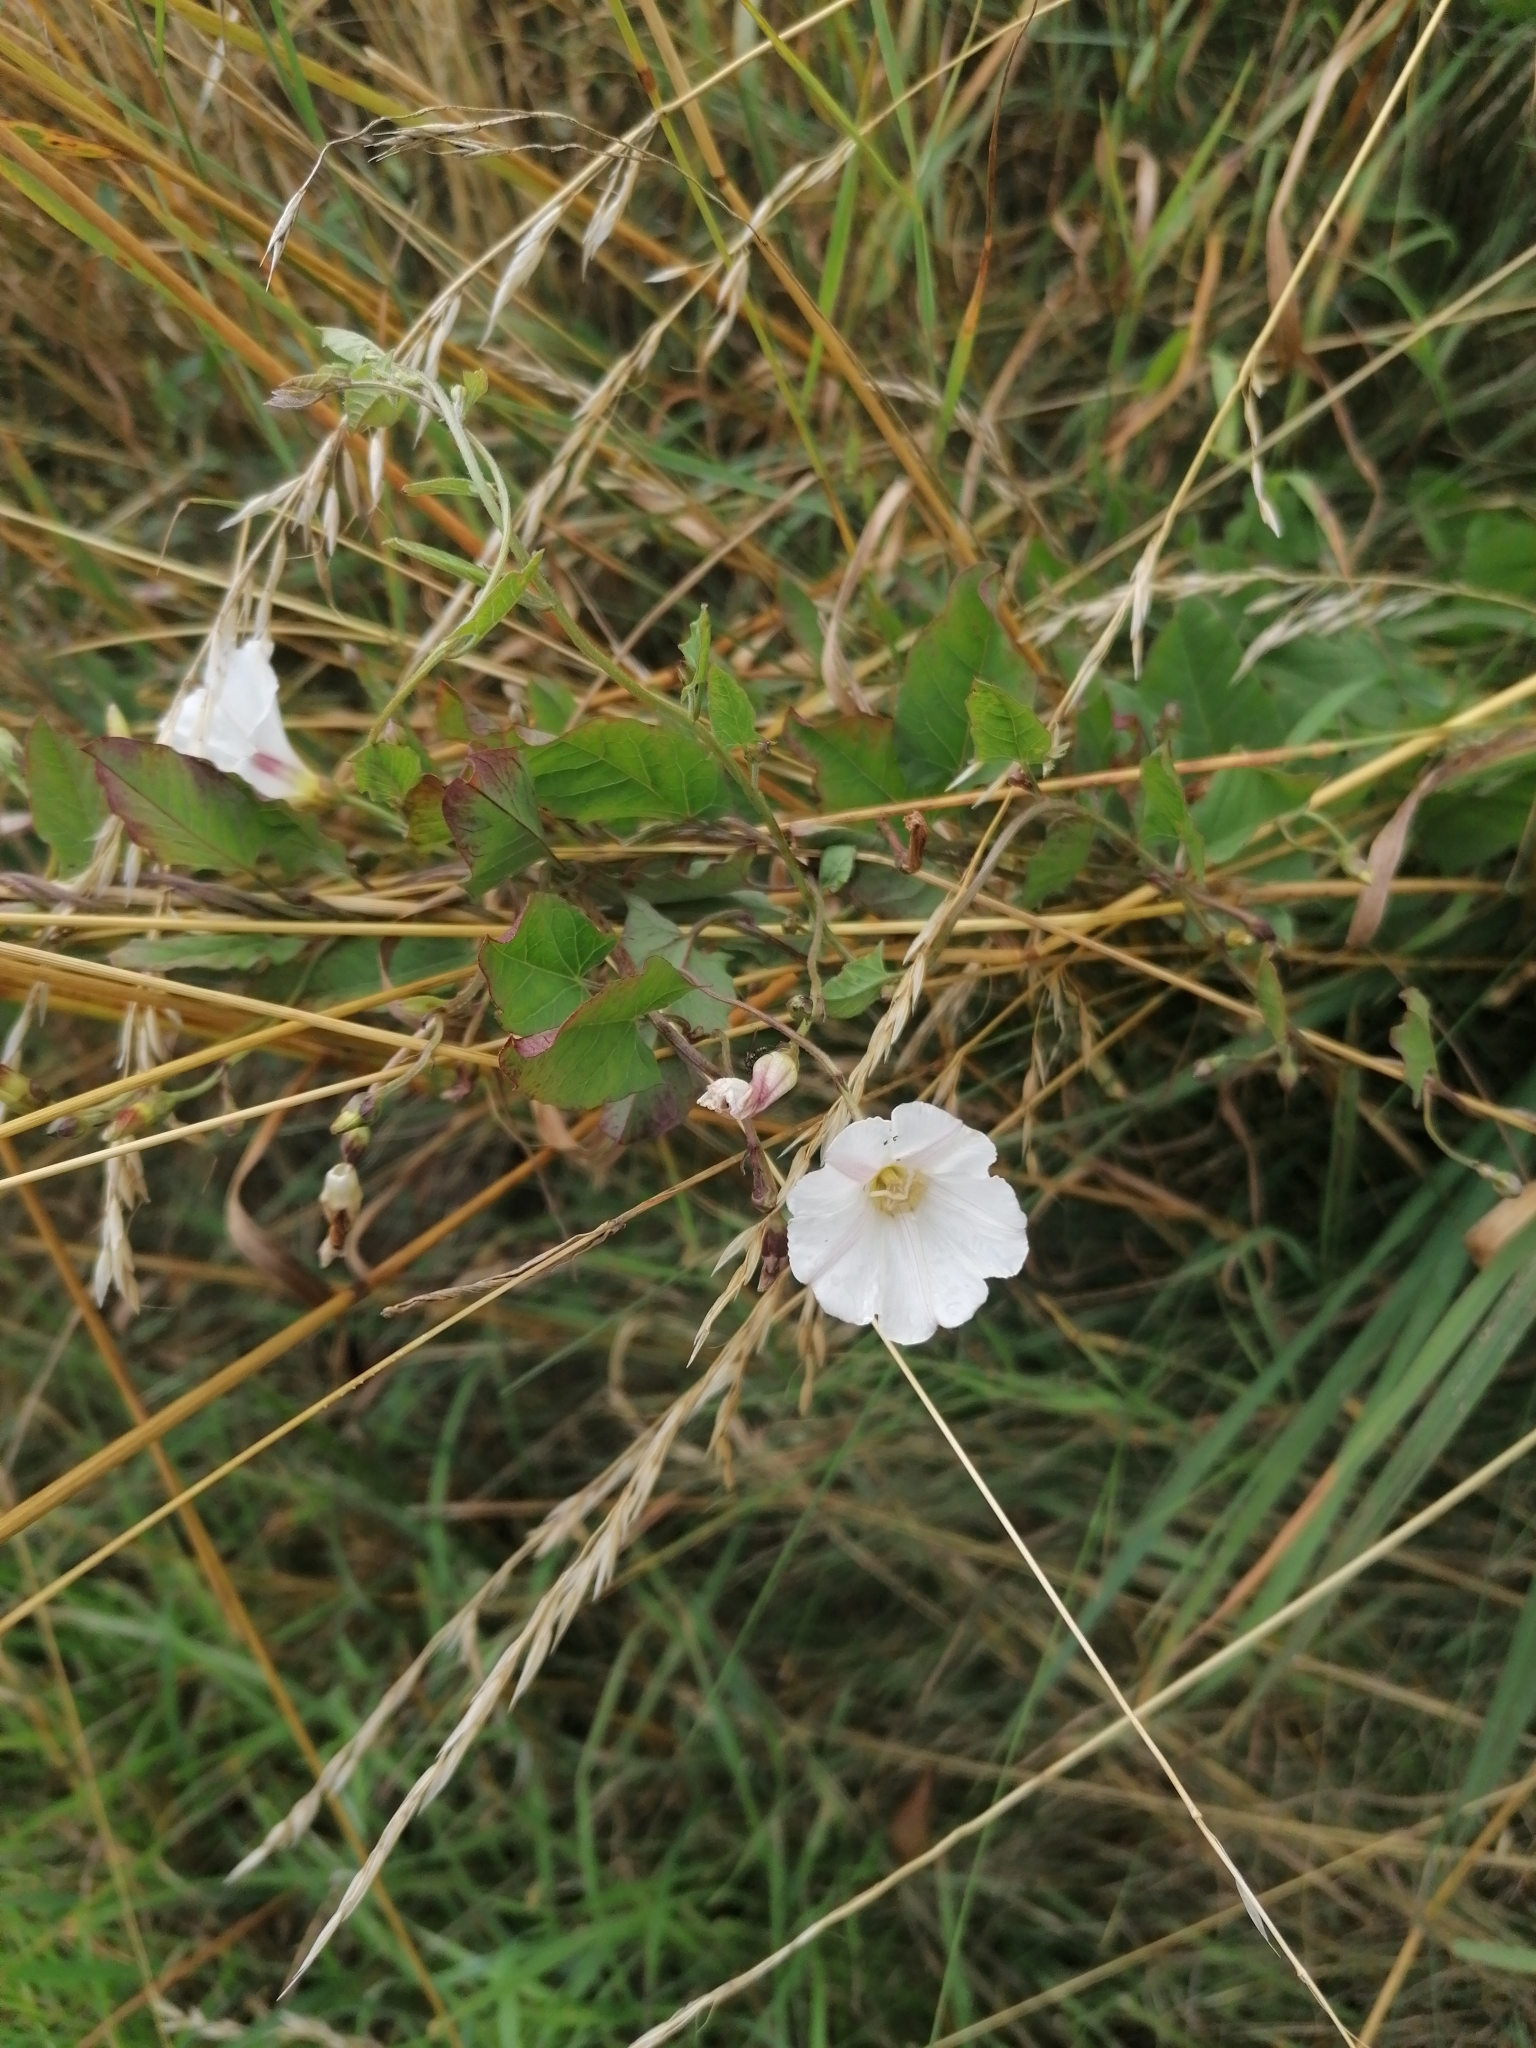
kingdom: Plantae
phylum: Tracheophyta
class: Magnoliopsida
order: Solanales
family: Convolvulaceae
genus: Convolvulus
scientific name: Convolvulus arvensis
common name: Field bindweed
